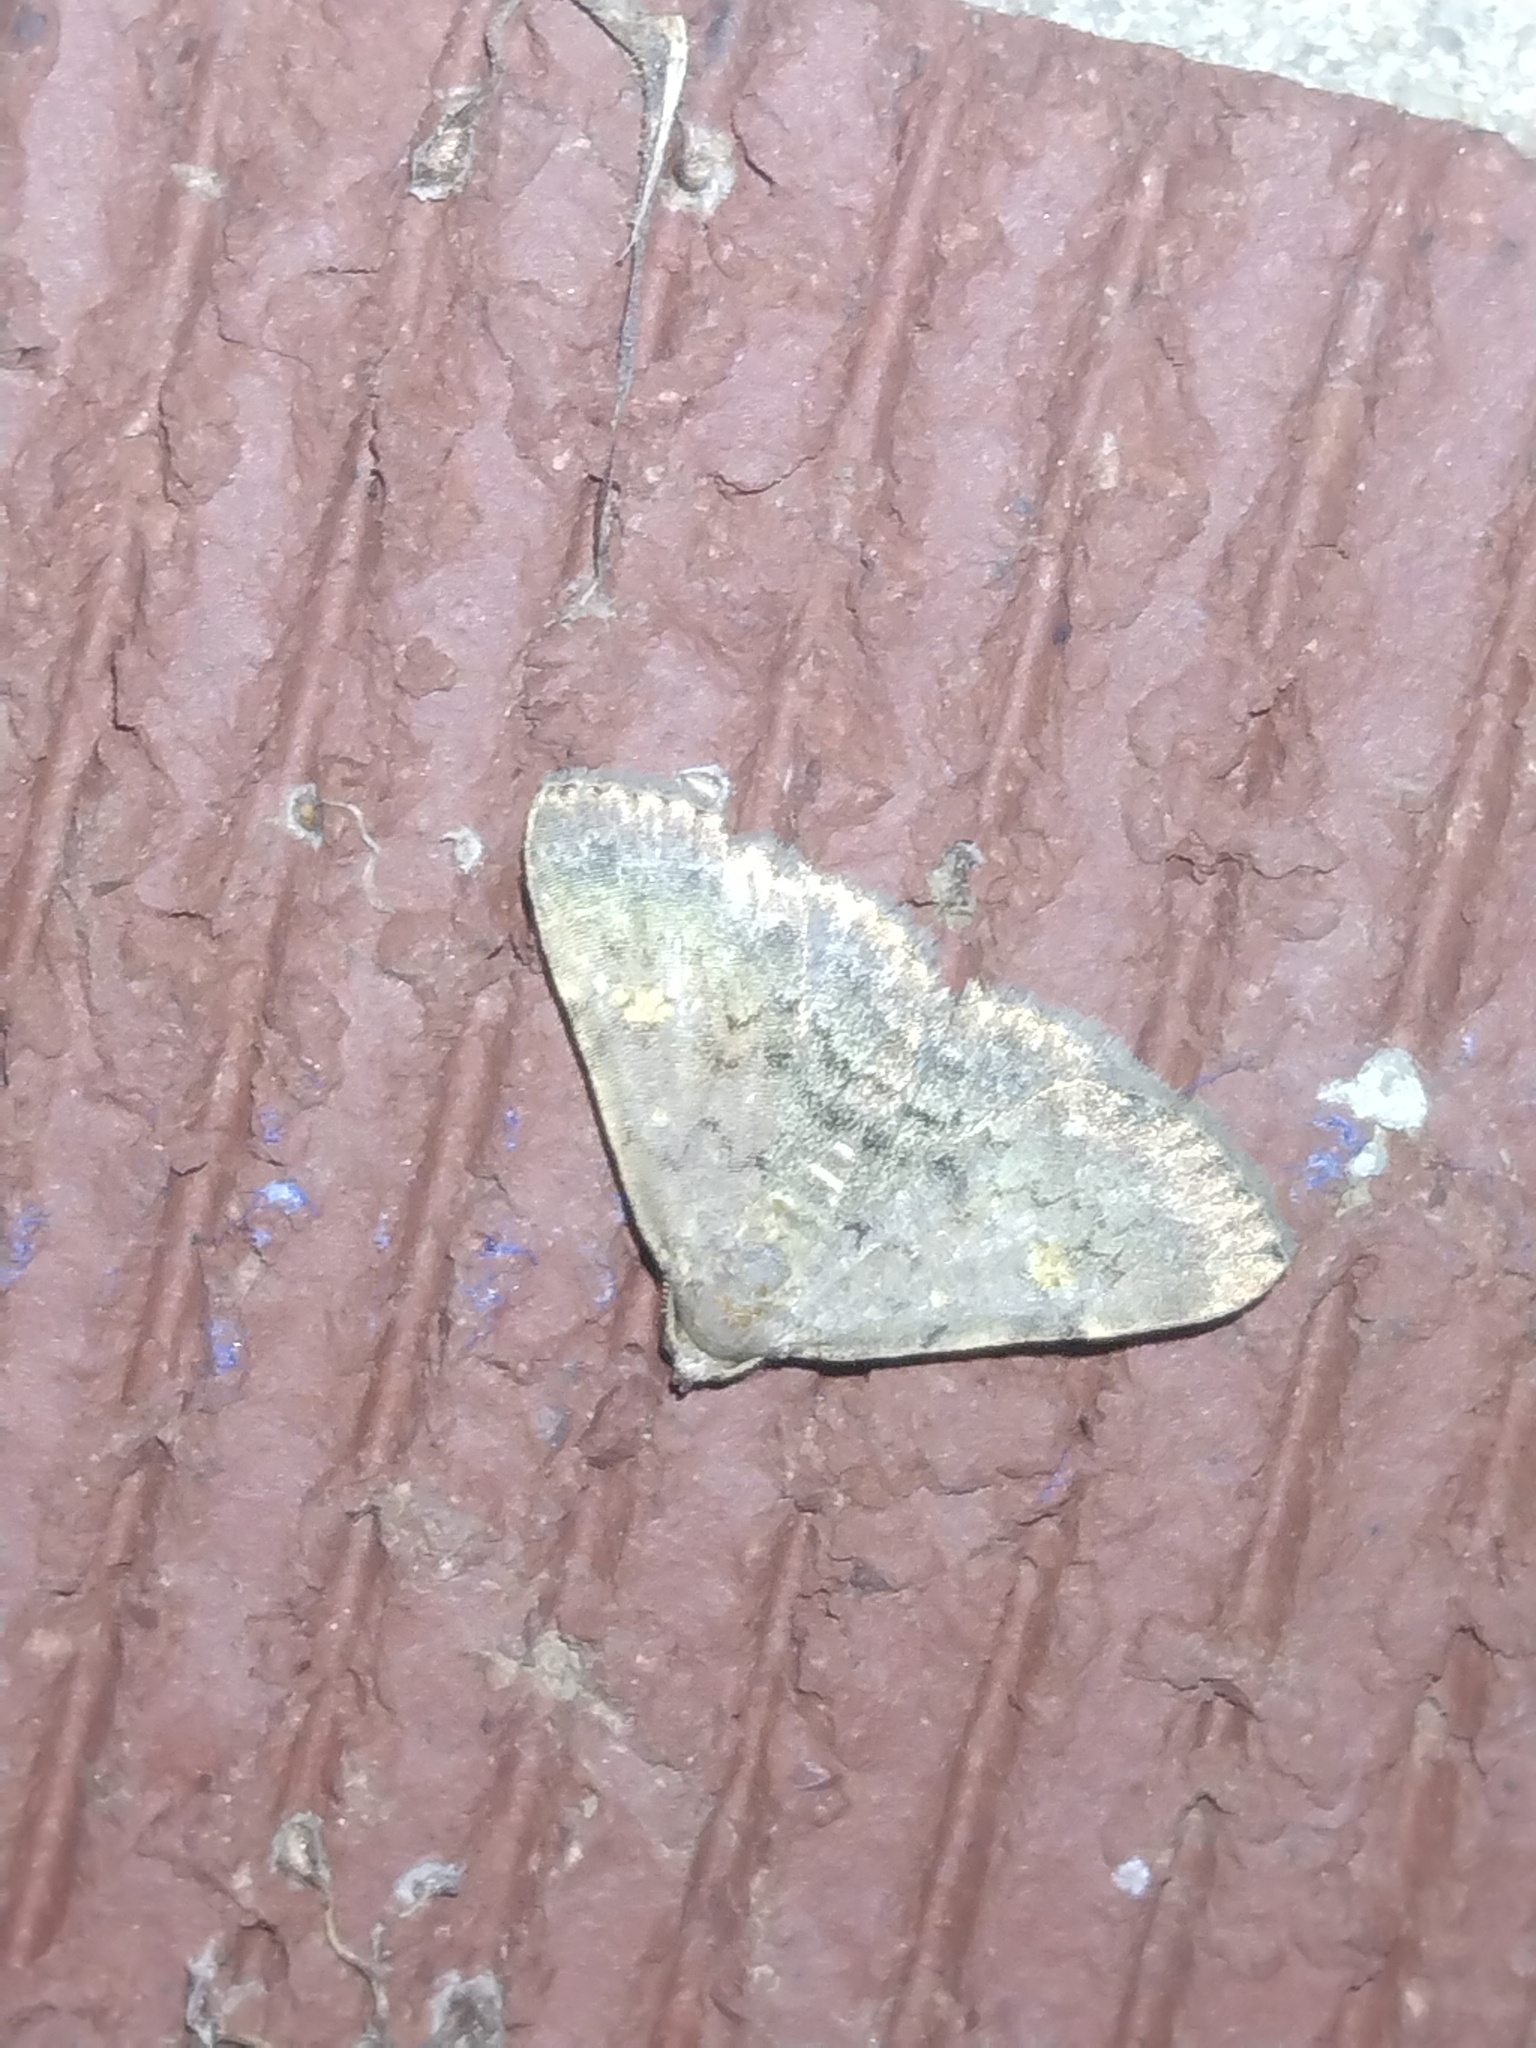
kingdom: Animalia
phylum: Arthropoda
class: Insecta
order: Lepidoptera
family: Erebidae
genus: Idia
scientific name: Idia aemula
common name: Common idia moth
